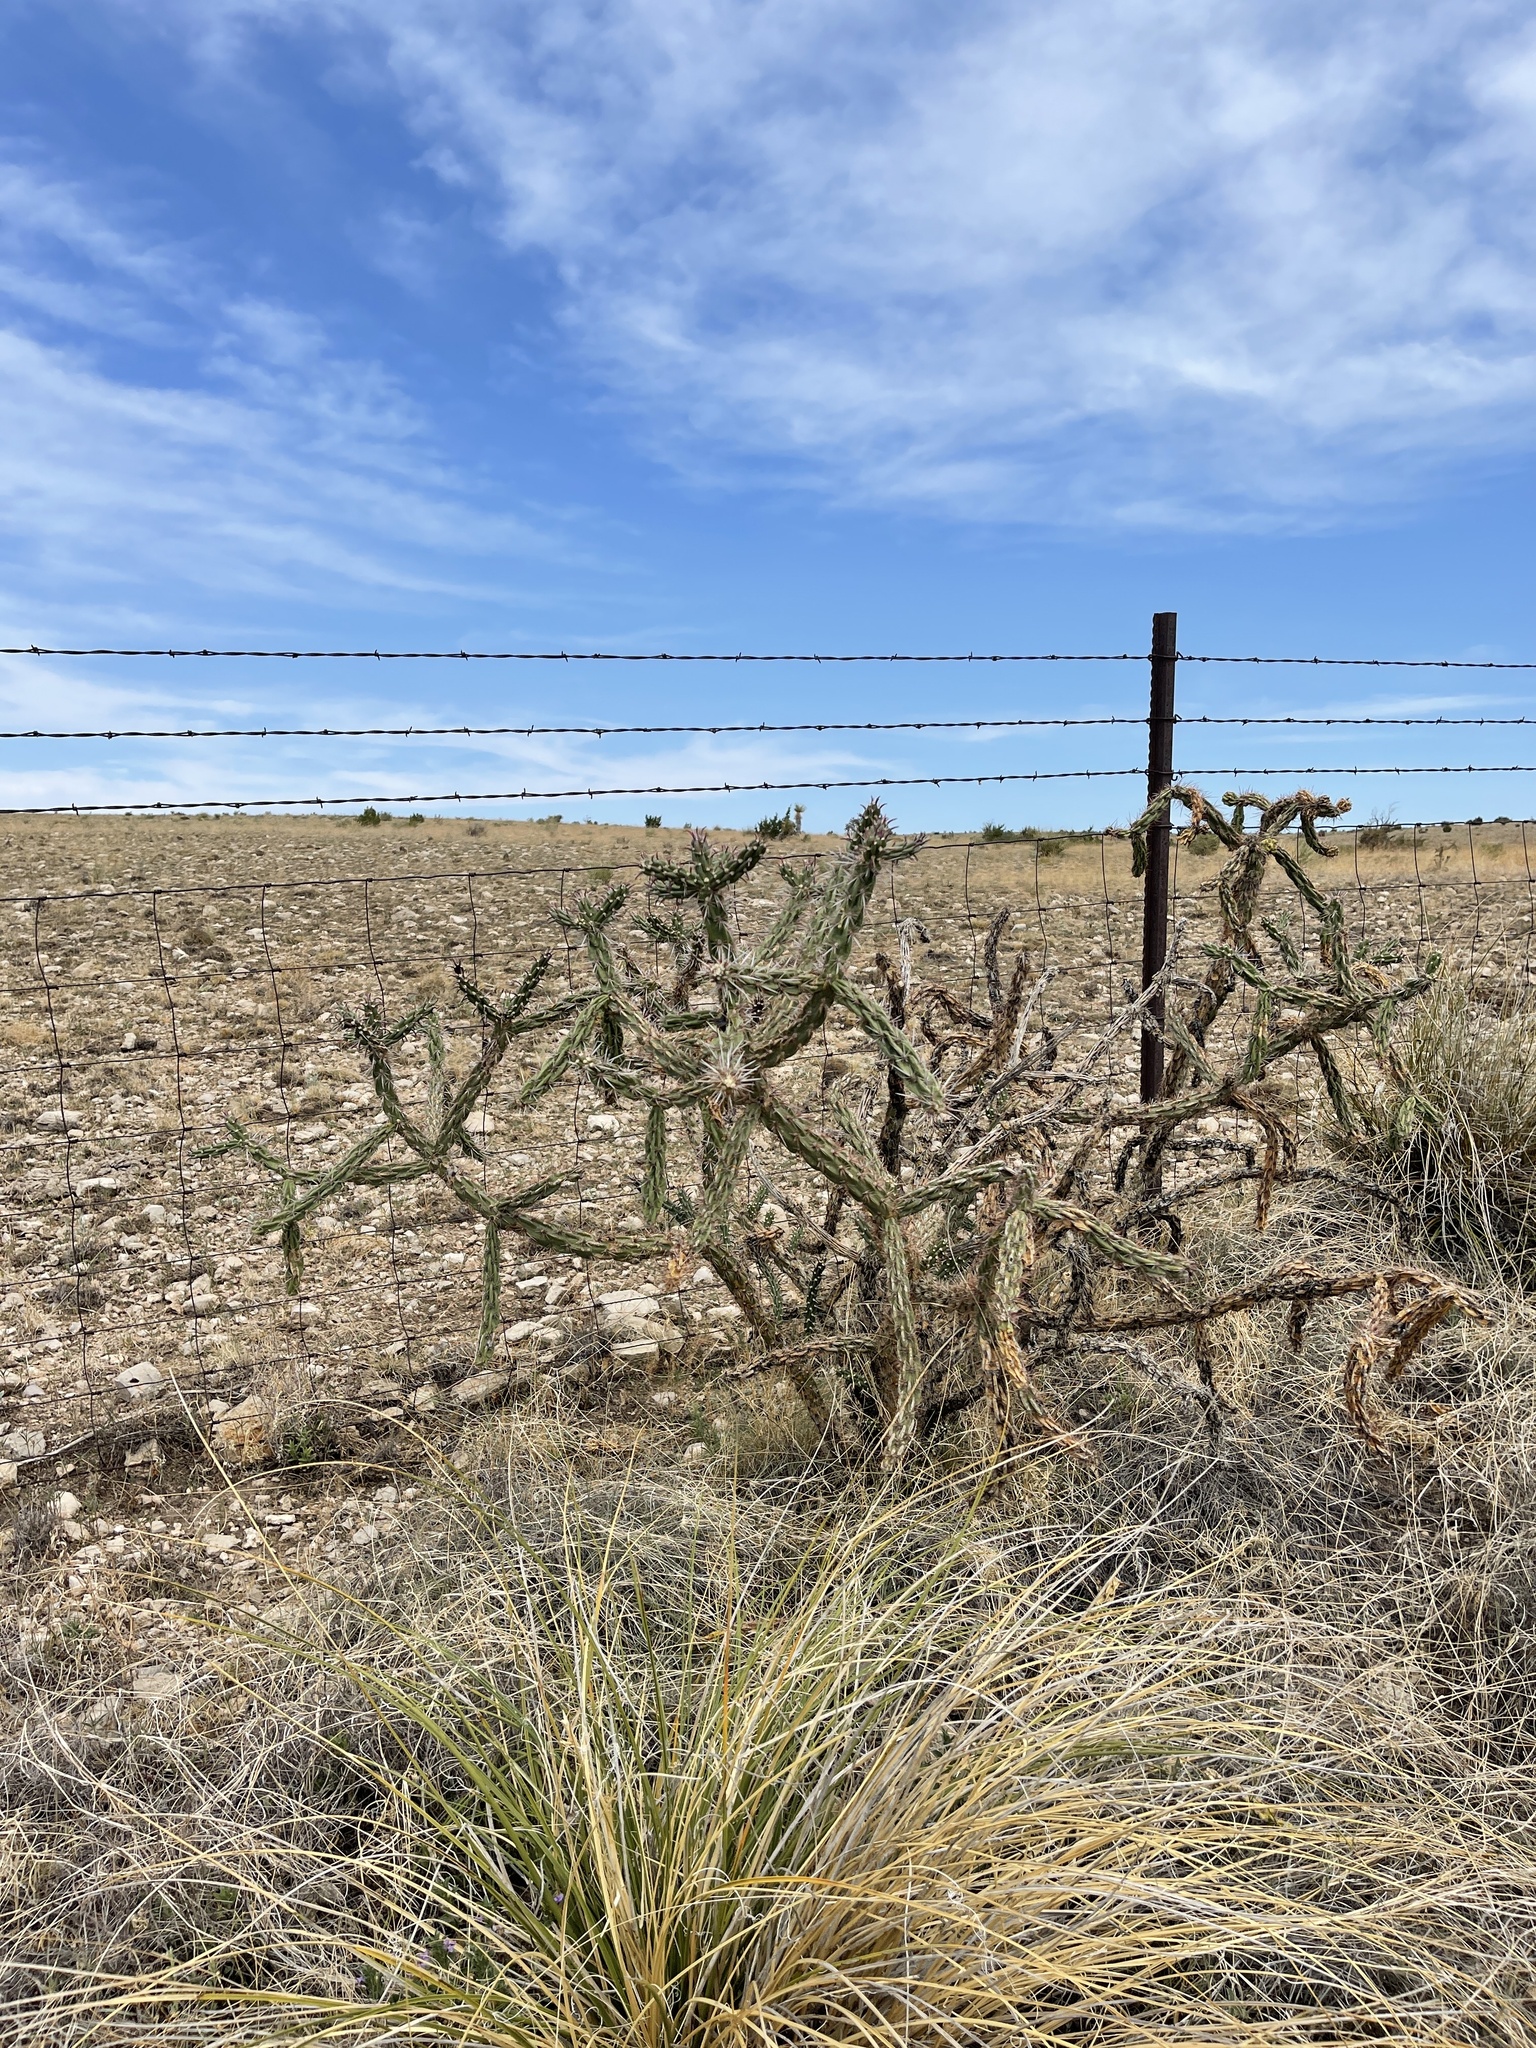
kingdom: Plantae
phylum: Tracheophyta
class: Magnoliopsida
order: Caryophyllales
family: Cactaceae
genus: Cylindropuntia
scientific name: Cylindropuntia imbricata
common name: Candelabrum cactus
